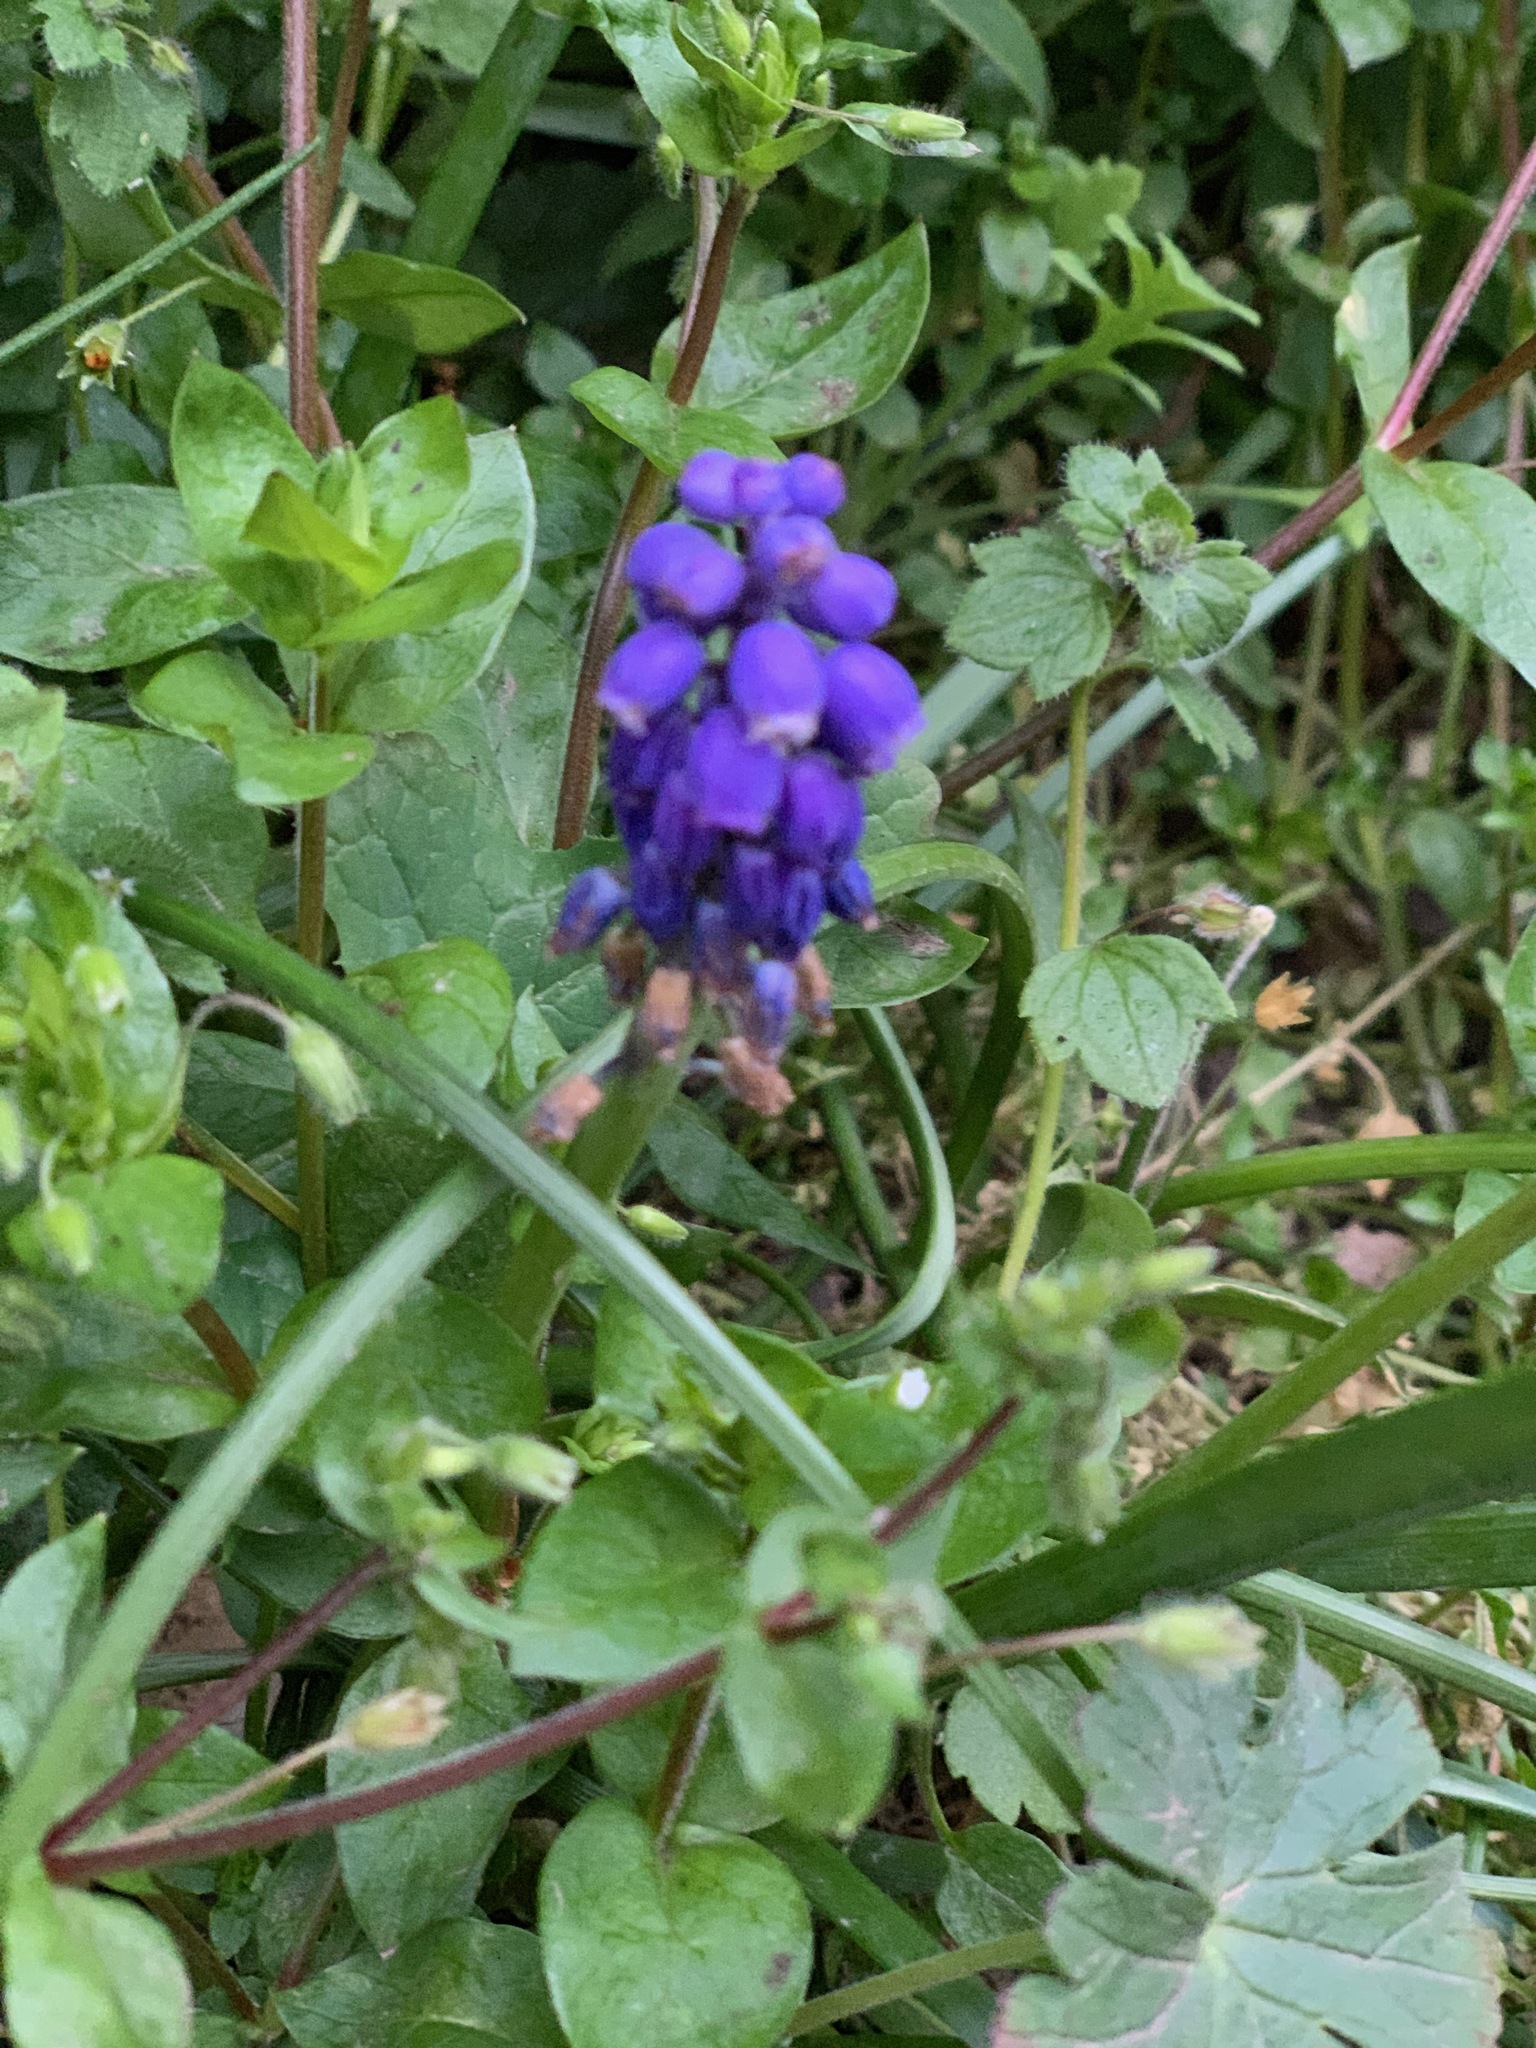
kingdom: Plantae
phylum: Tracheophyta
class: Liliopsida
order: Asparagales
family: Asparagaceae
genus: Muscari
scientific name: Muscari armeniacum
